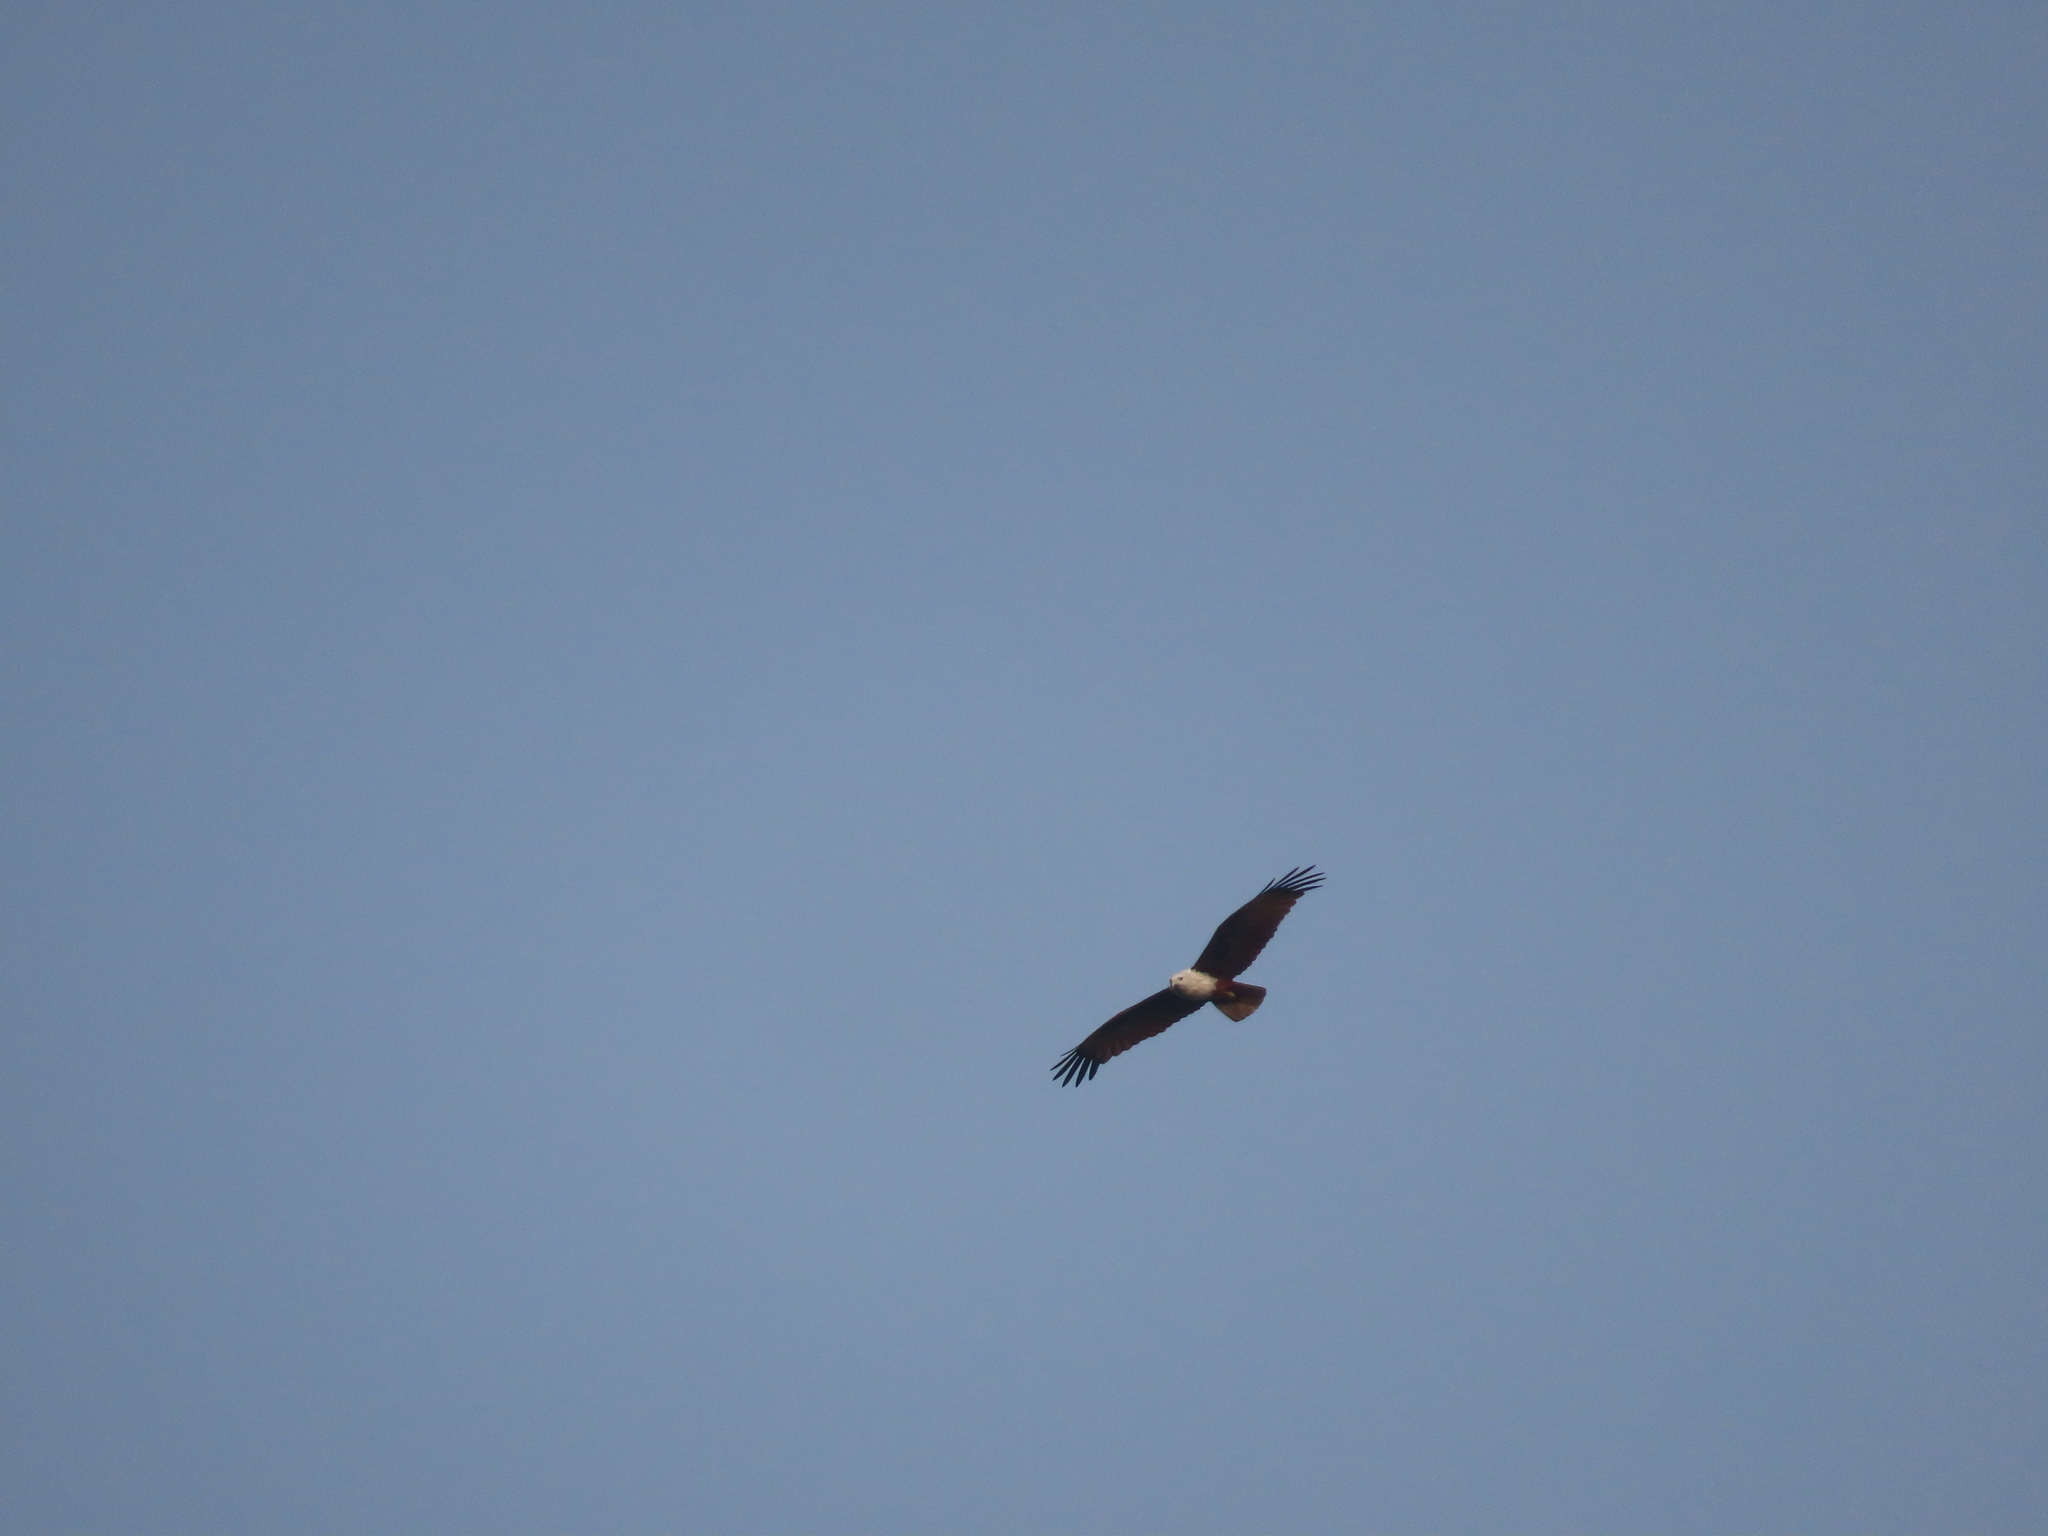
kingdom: Animalia
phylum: Chordata
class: Aves
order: Accipitriformes
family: Accipitridae
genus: Haliastur
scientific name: Haliastur indus
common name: Brahminy kite
